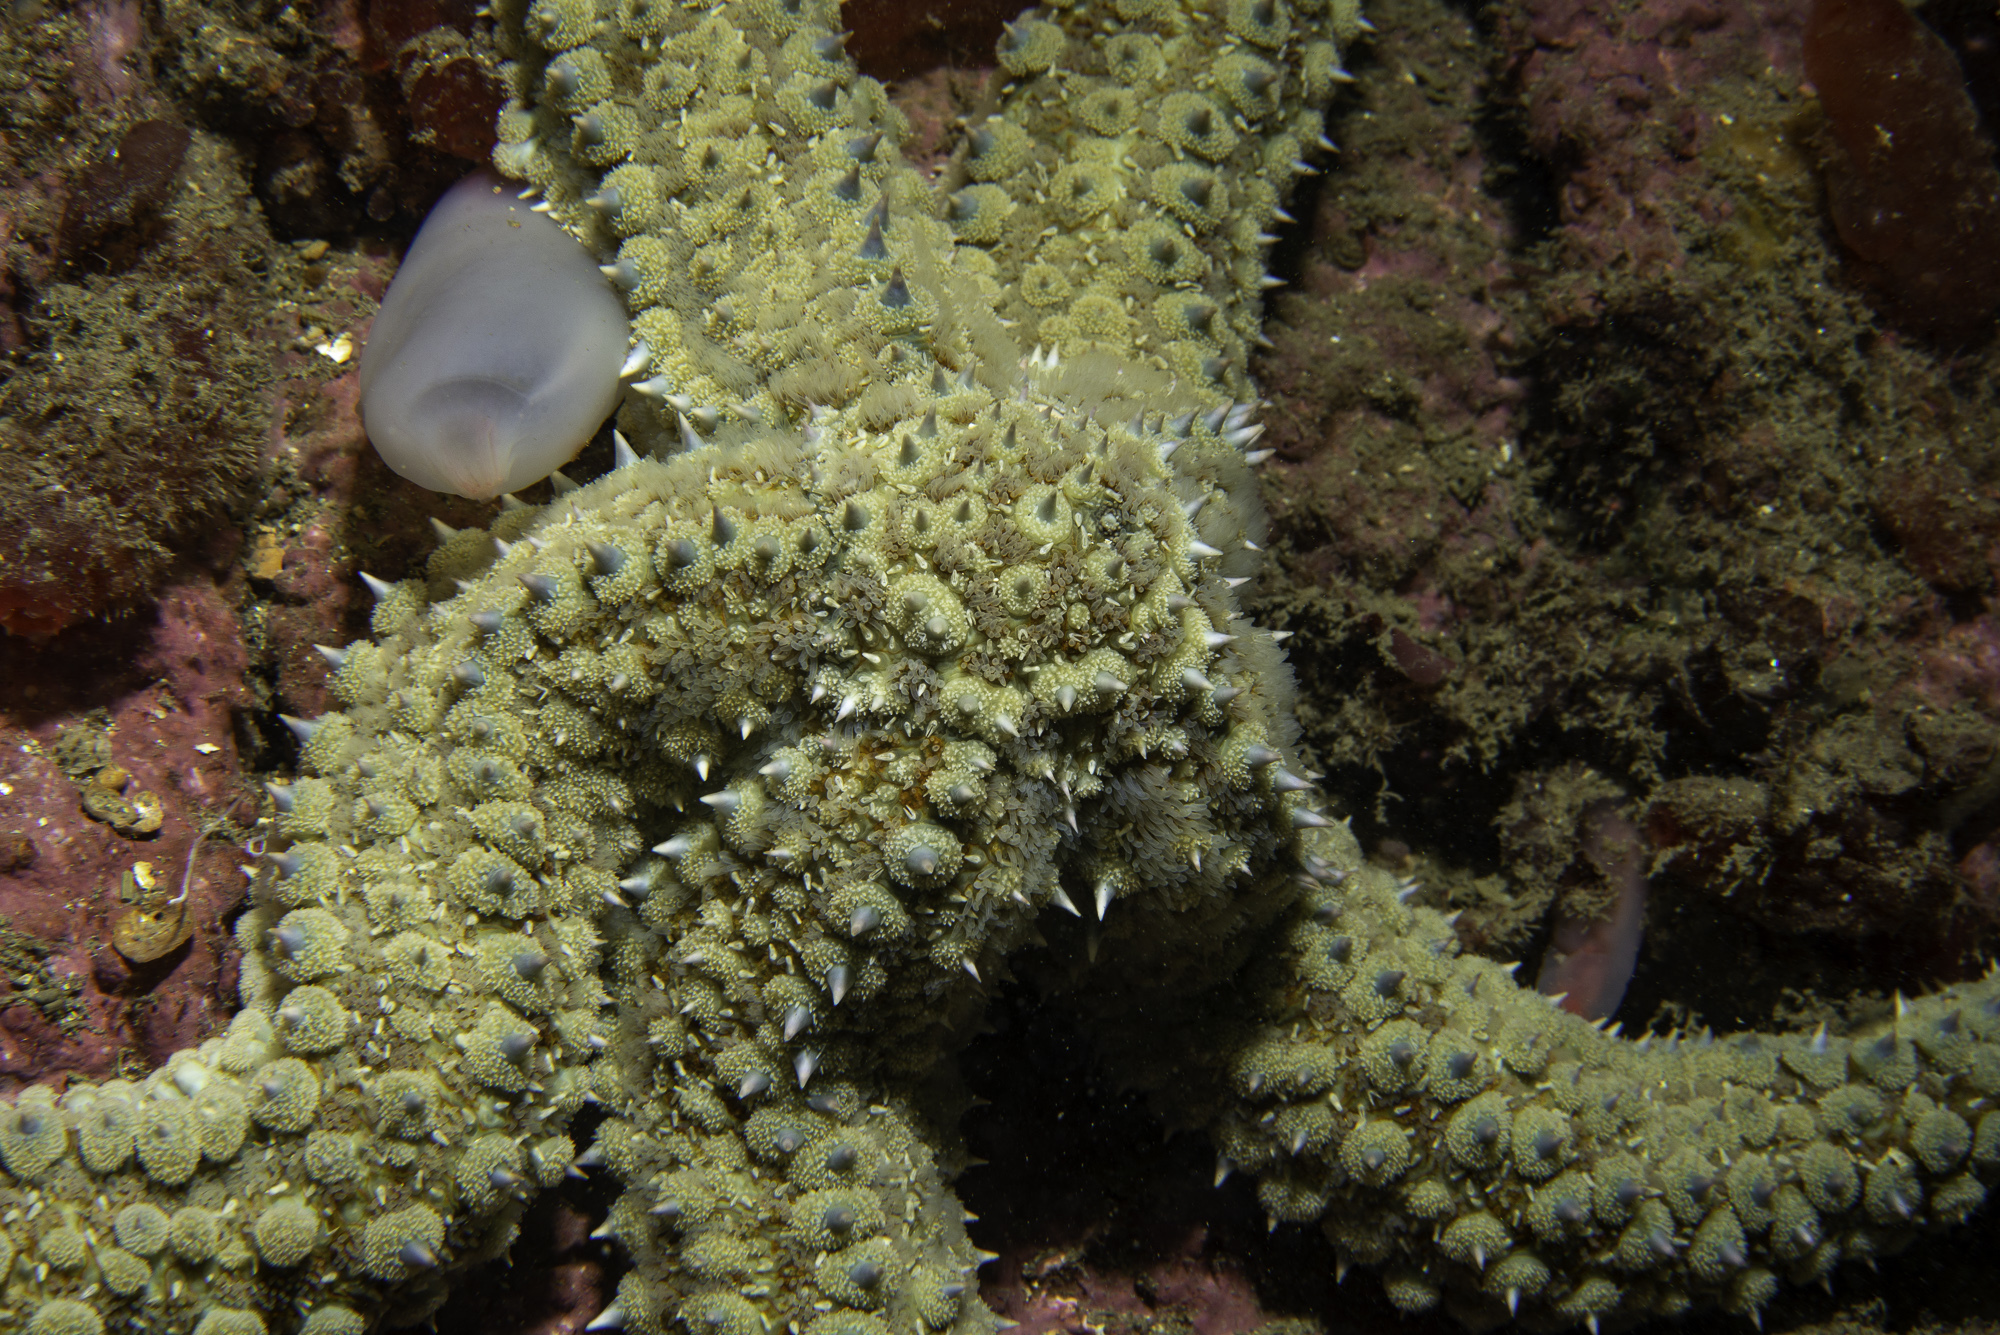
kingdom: Animalia
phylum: Echinodermata
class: Asteroidea
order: Forcipulatida
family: Asteriidae
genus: Marthasterias
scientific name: Marthasterias glacialis
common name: Spiny starfish
